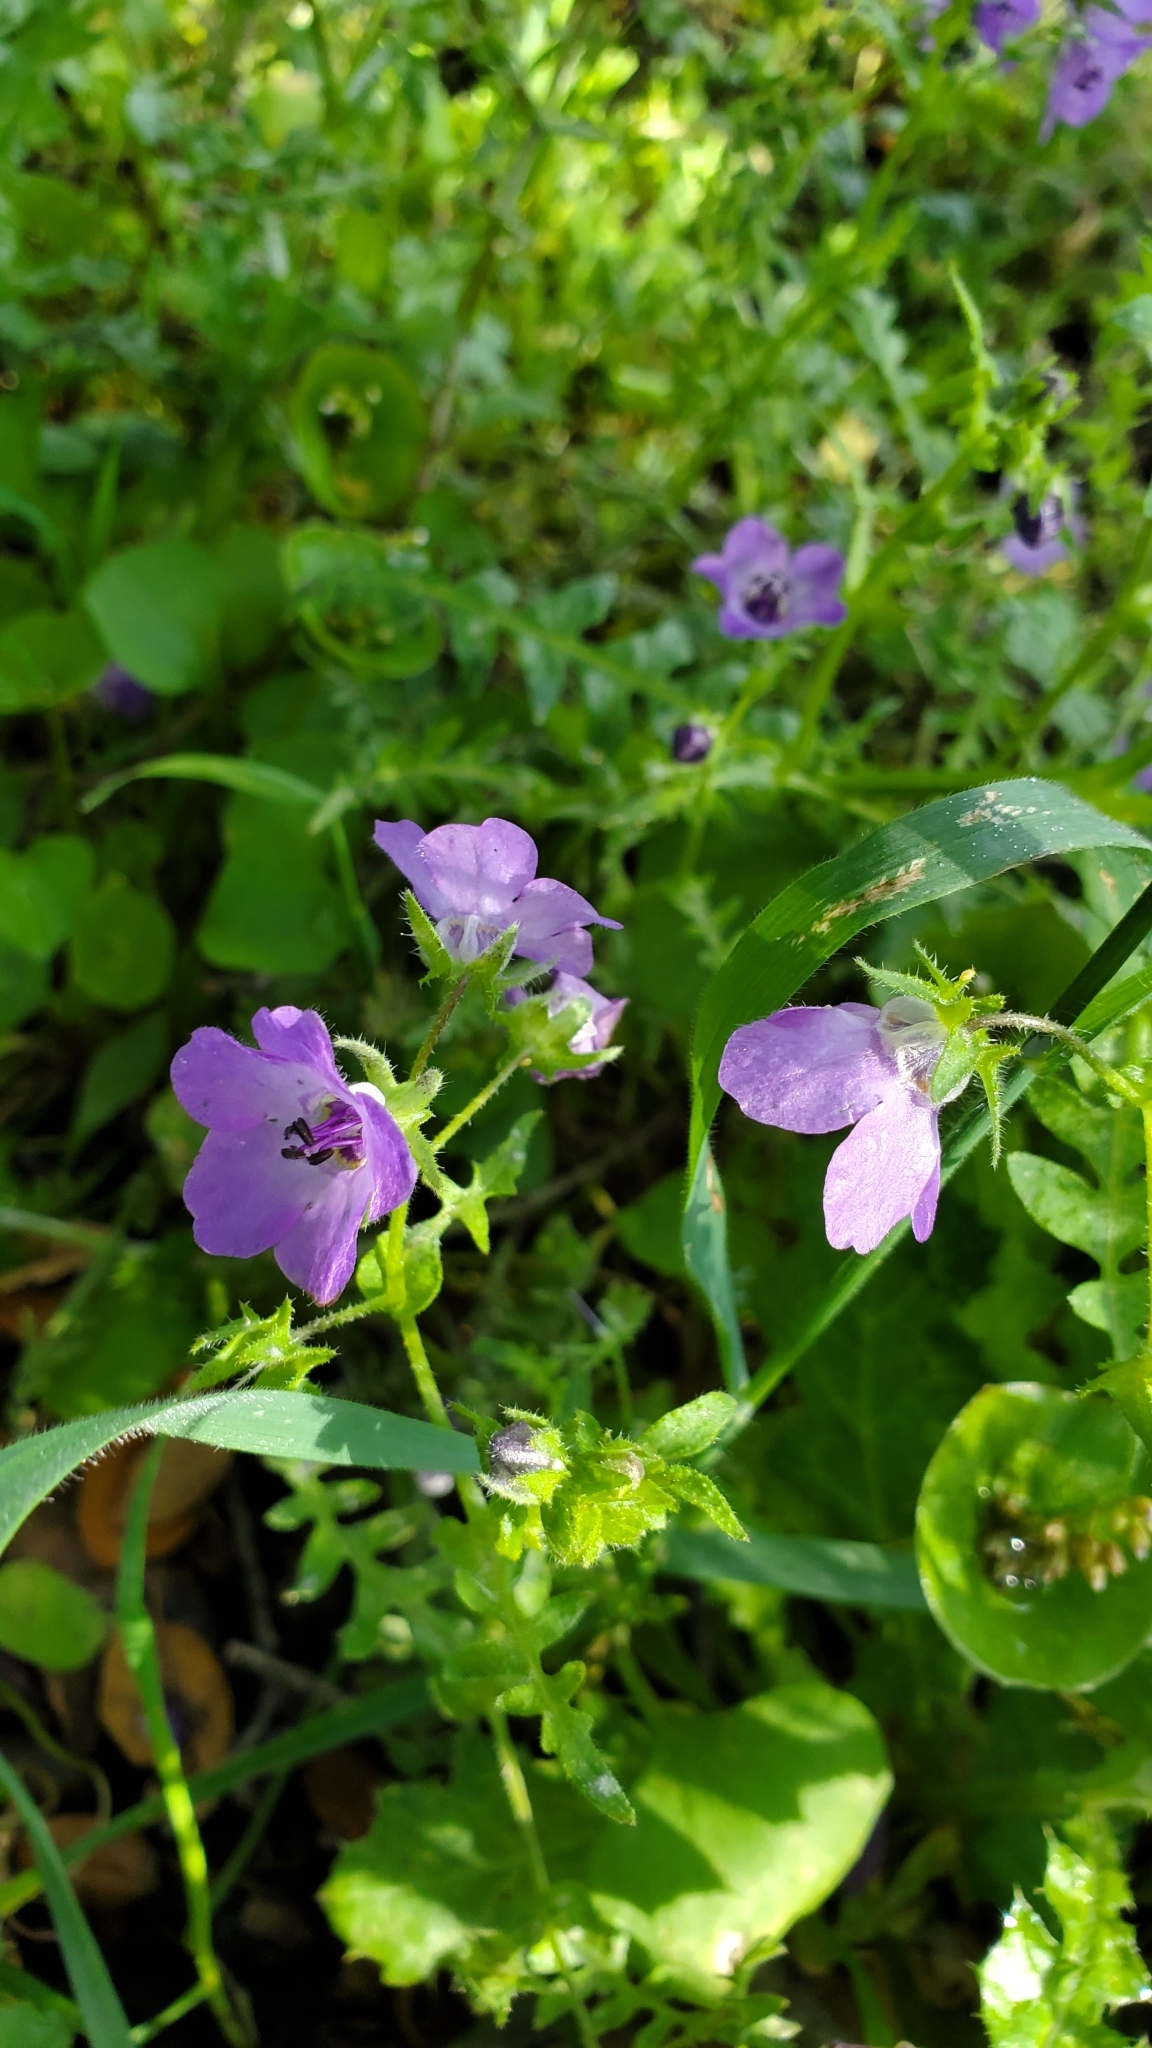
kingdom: Plantae
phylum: Tracheophyta
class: Magnoliopsida
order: Boraginales
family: Hydrophyllaceae
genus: Pholistoma
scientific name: Pholistoma auritum
